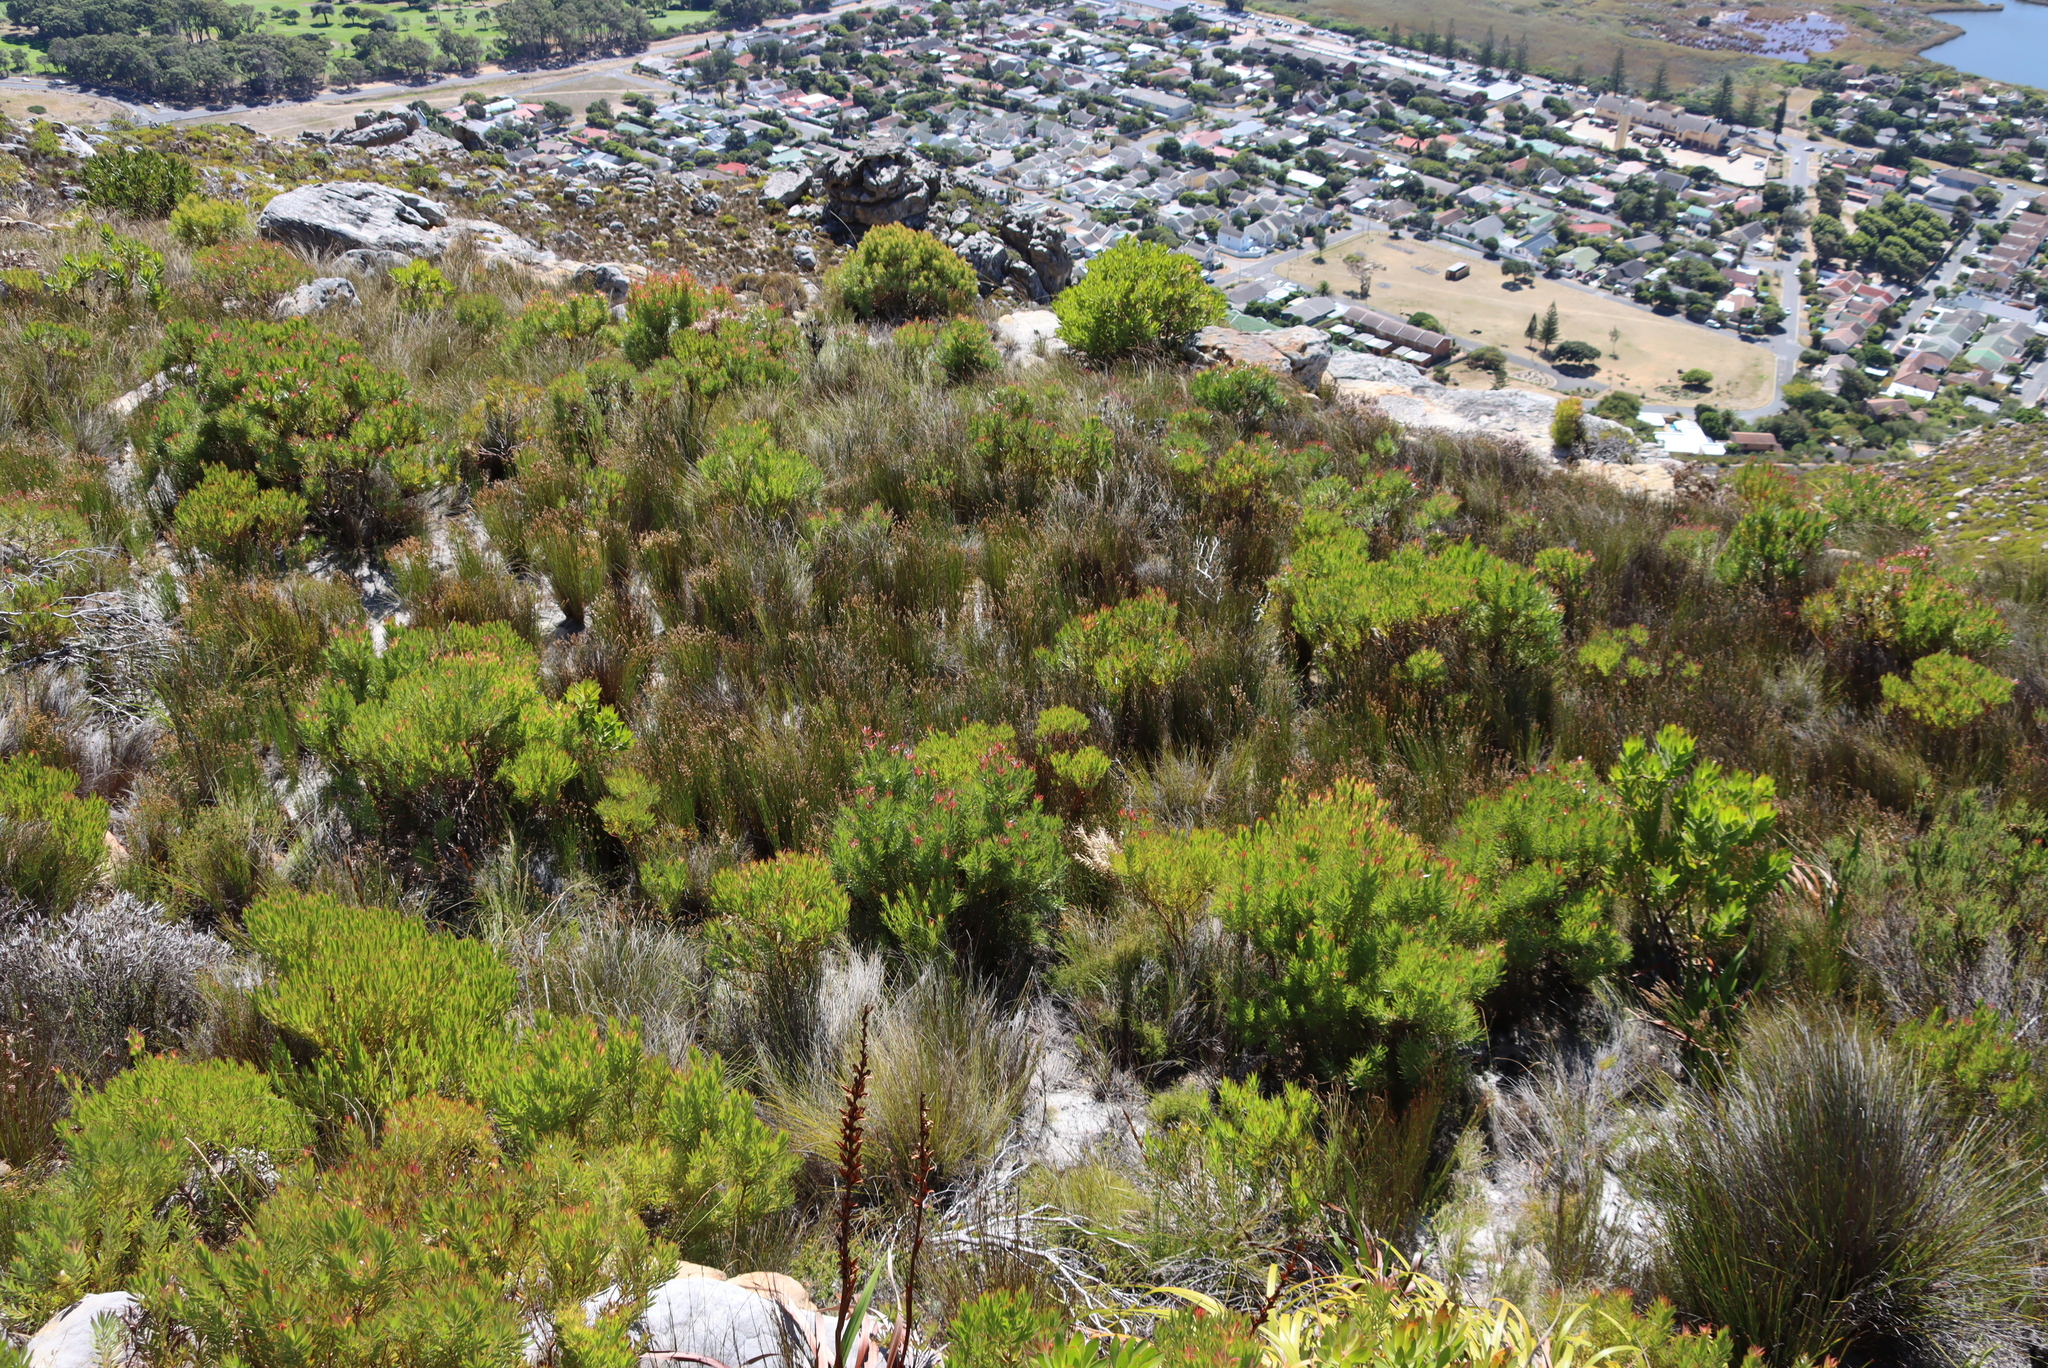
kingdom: Plantae
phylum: Tracheophyta
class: Magnoliopsida
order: Proteales
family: Proteaceae
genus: Leucadendron
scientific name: Leucadendron xanthoconus
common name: Sickle-leaf conebush
